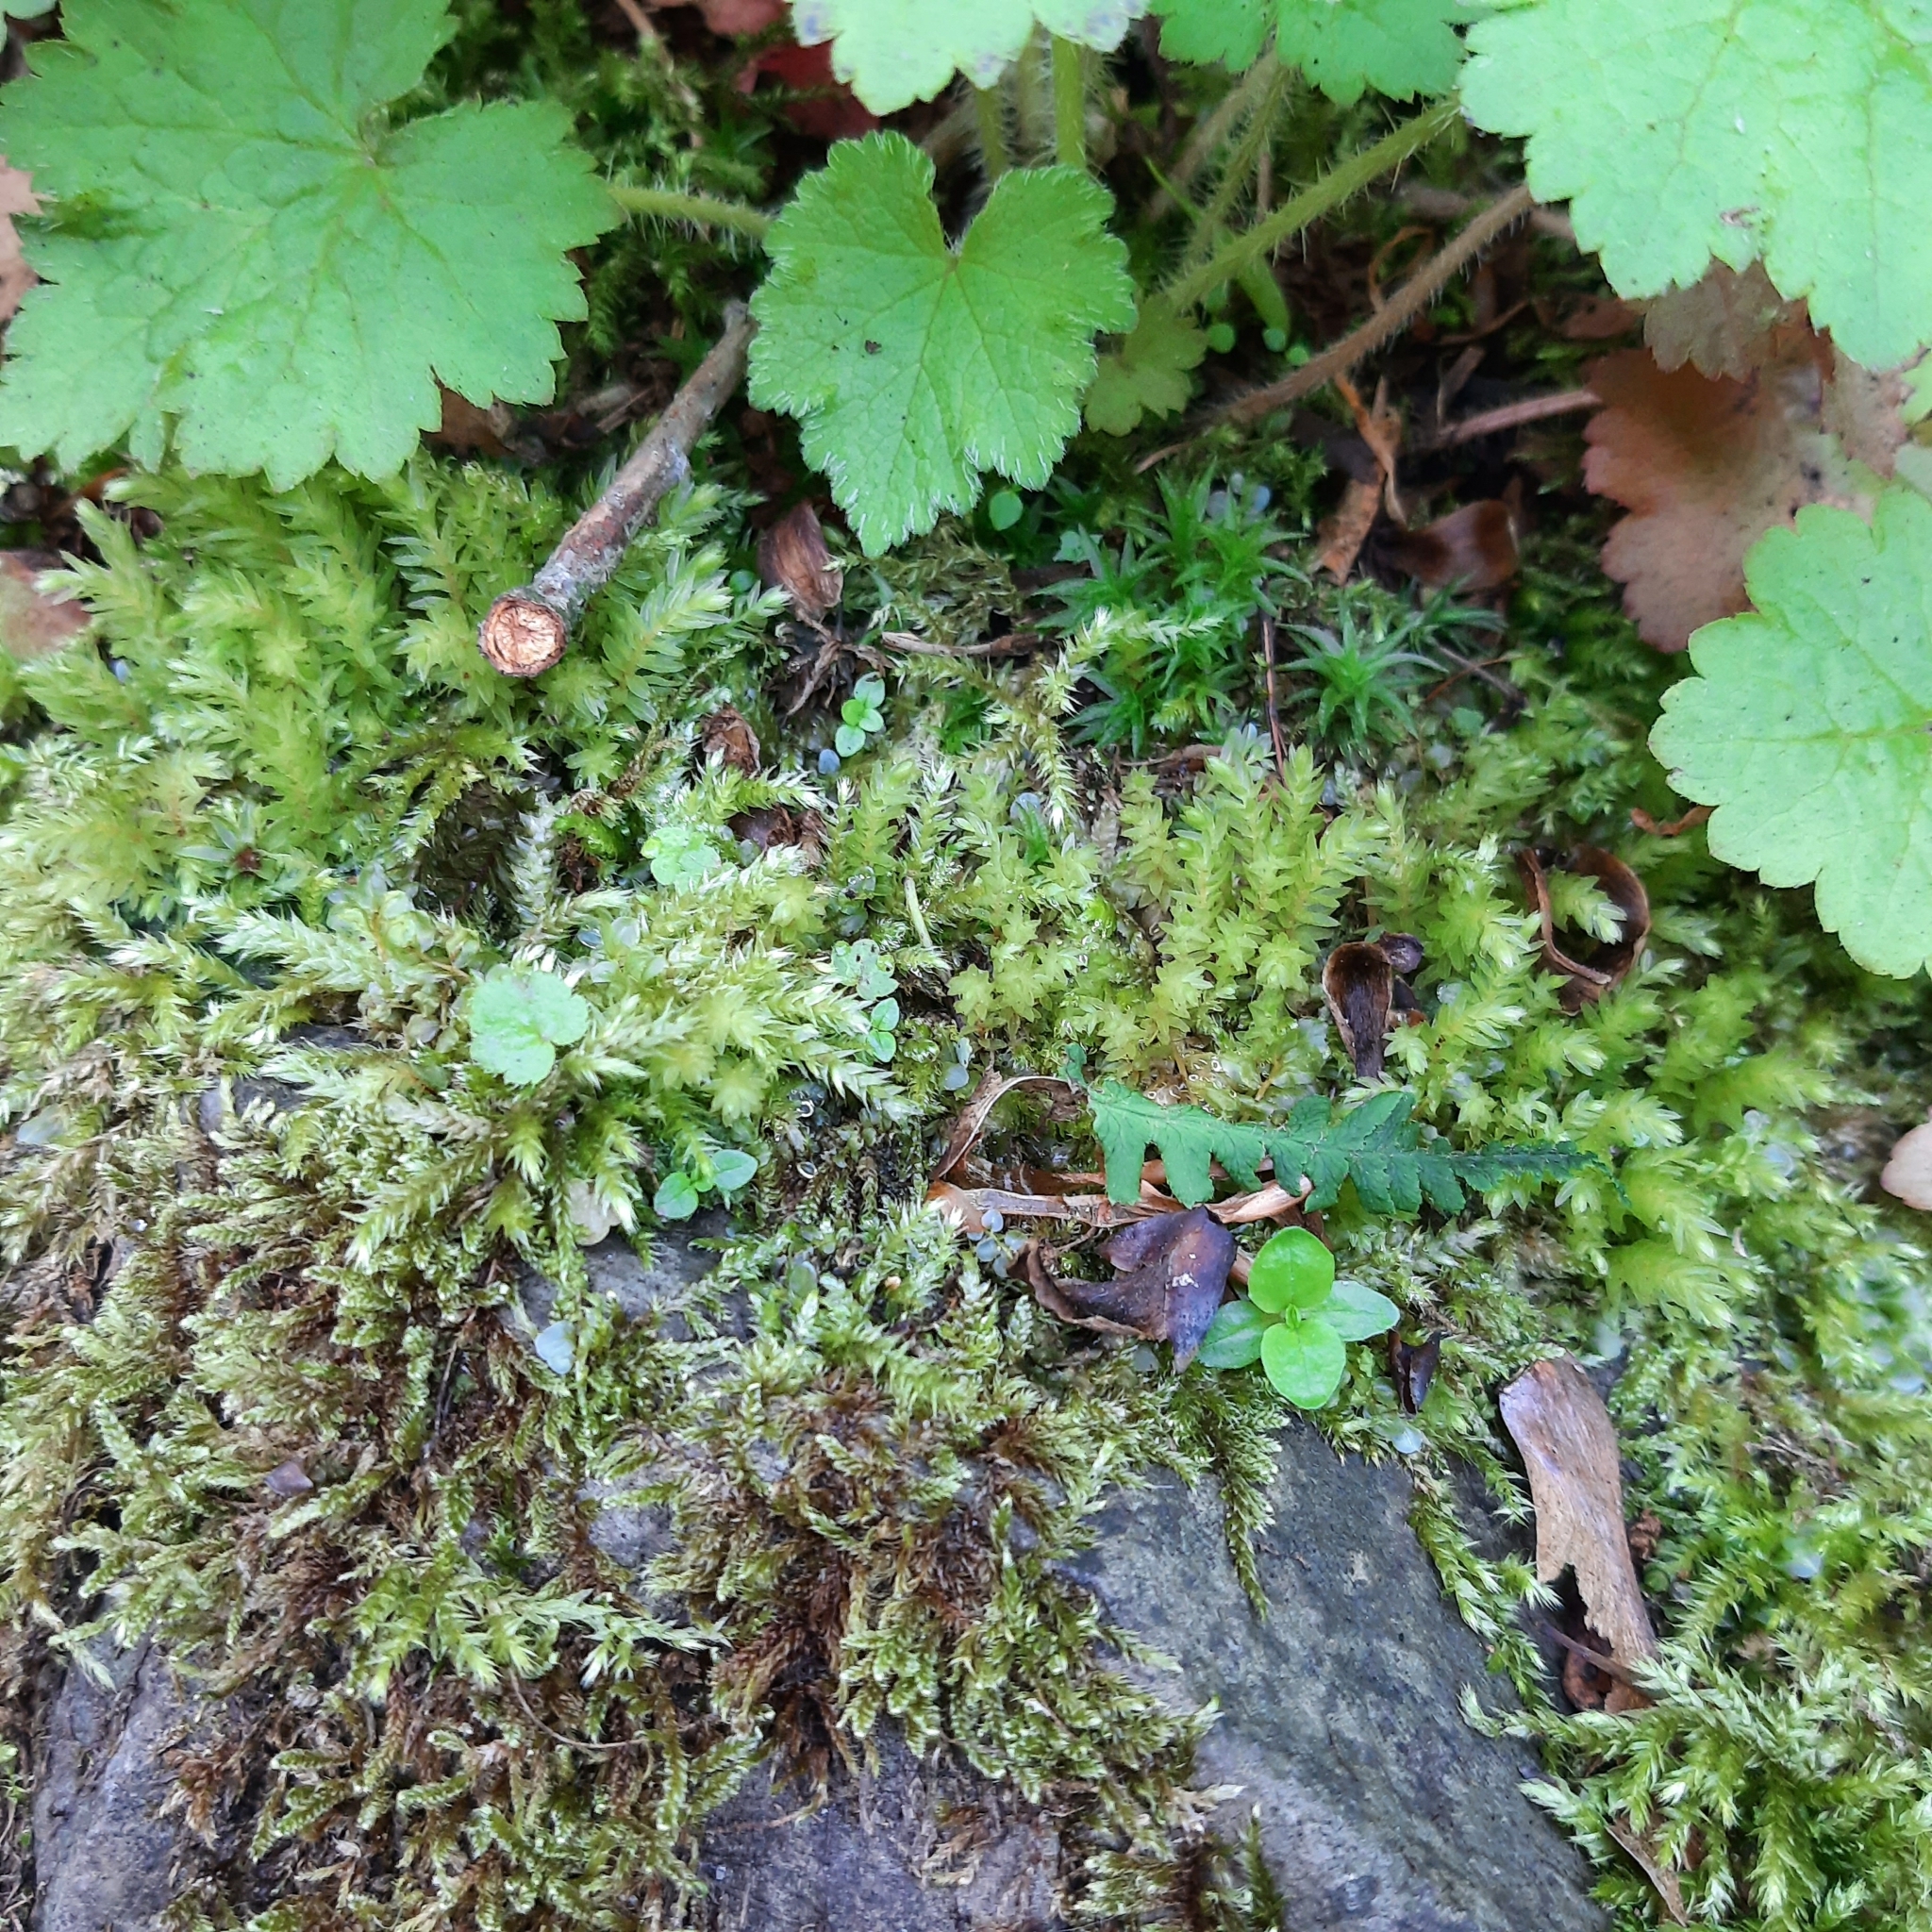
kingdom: Plantae
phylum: Bryophyta
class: Bryopsida
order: Bryales
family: Mniaceae
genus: Mnium
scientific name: Mnium hornum
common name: Swan's-neck leafy moss
